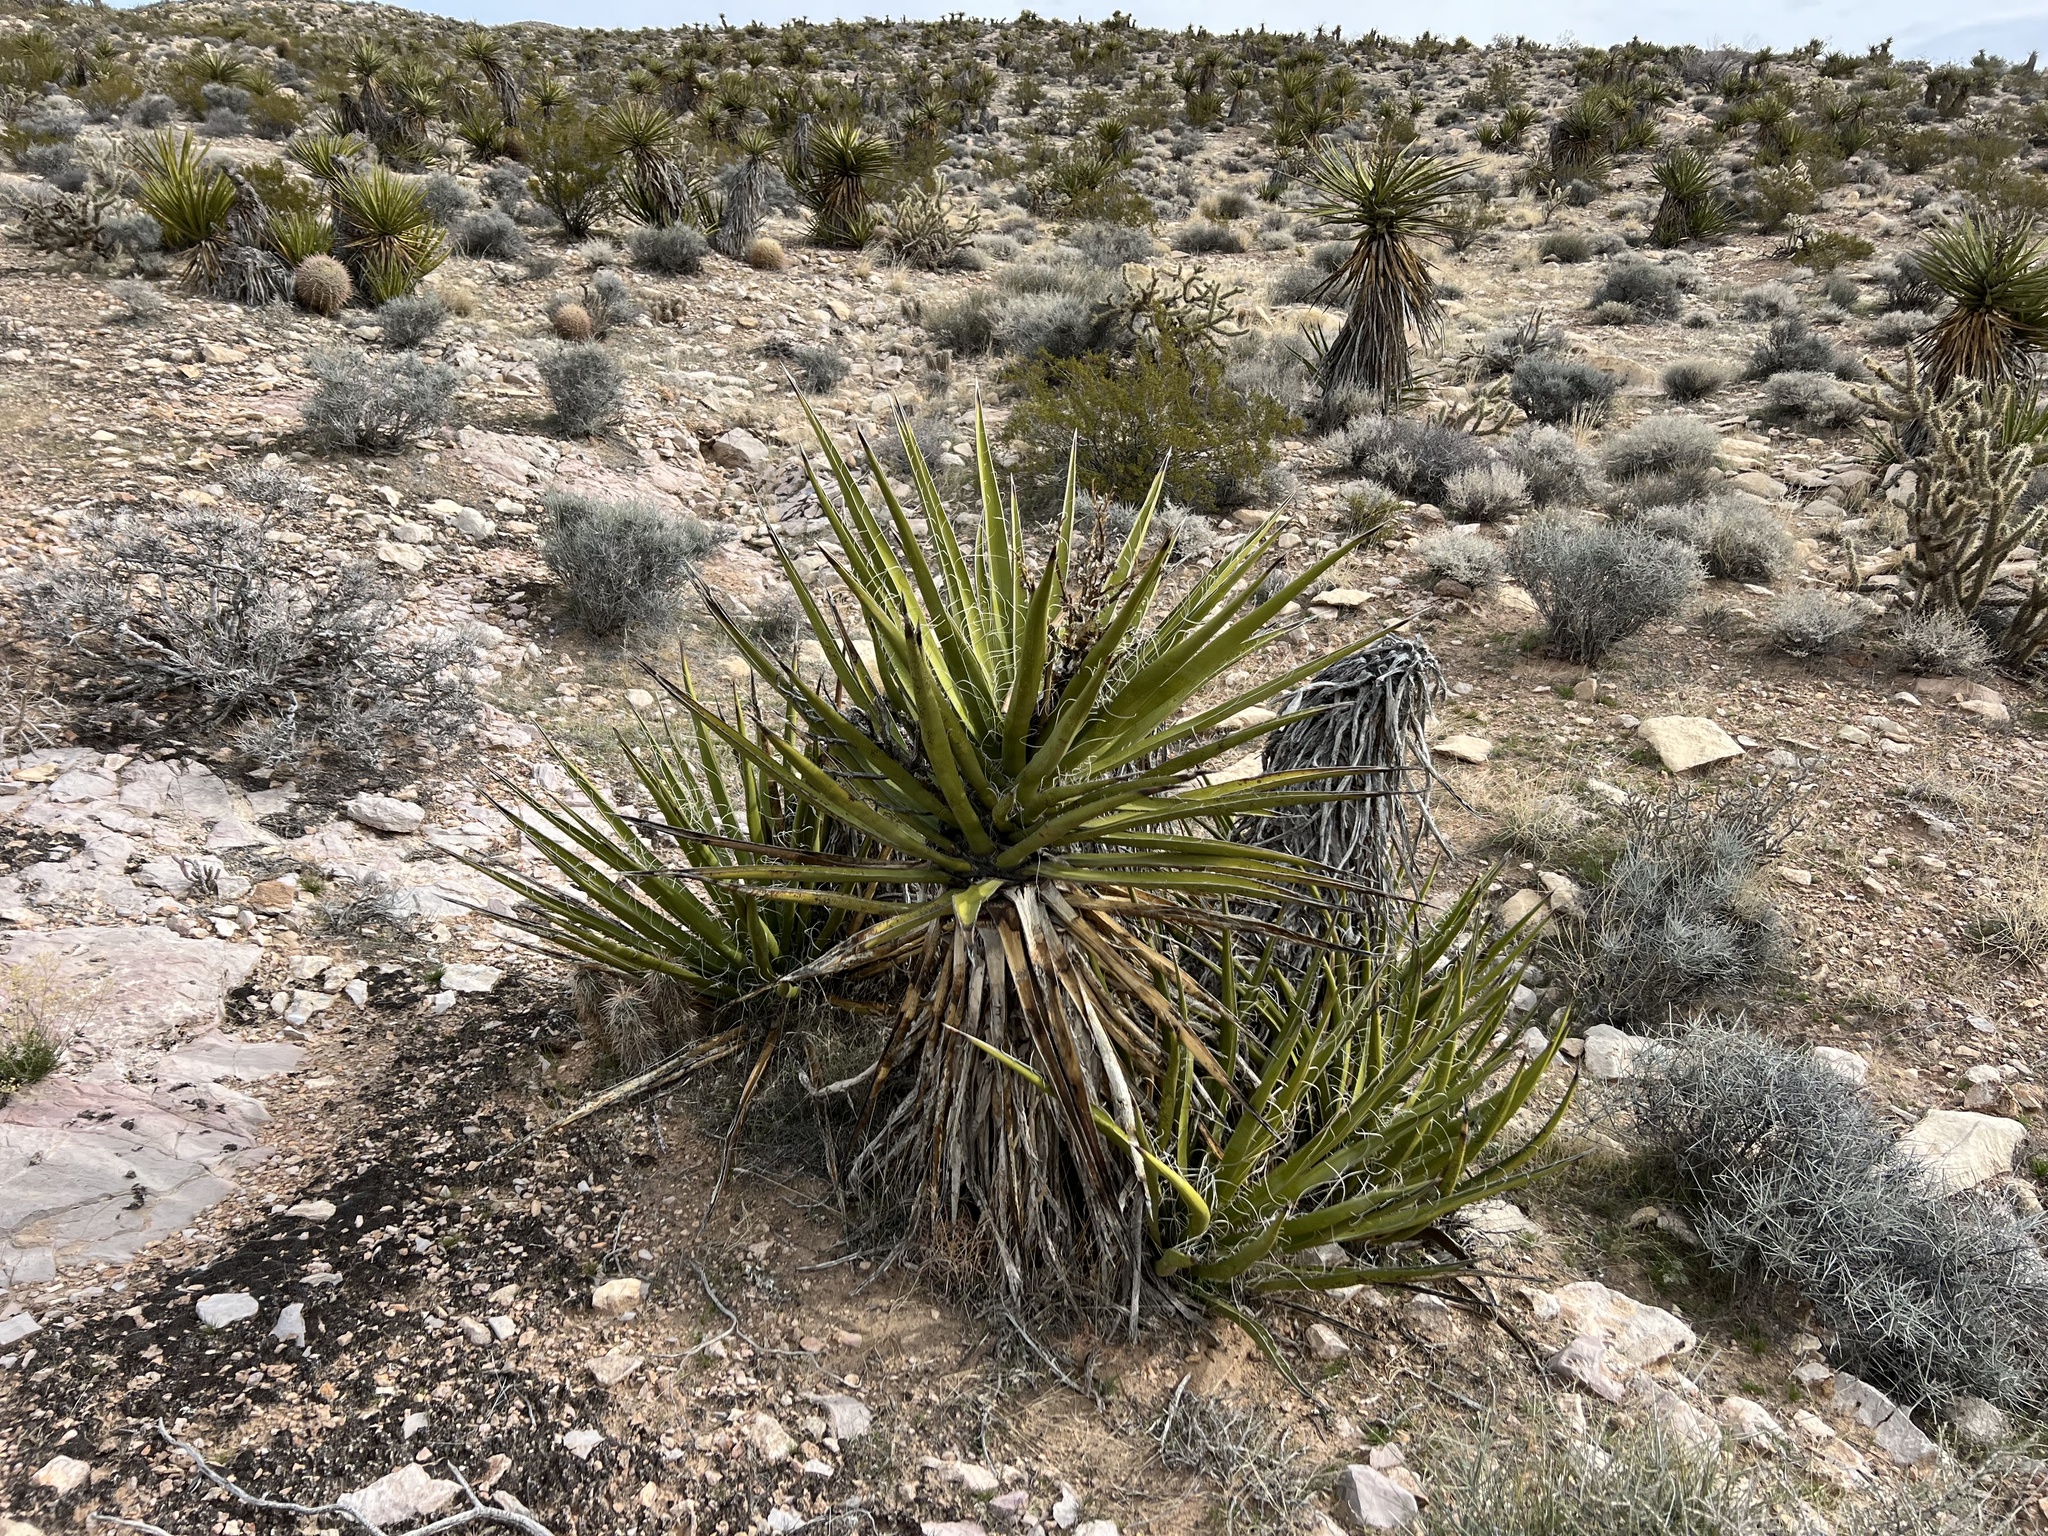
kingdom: Plantae
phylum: Tracheophyta
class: Liliopsida
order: Asparagales
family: Asparagaceae
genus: Yucca
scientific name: Yucca schidigera
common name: Mojave yucca
